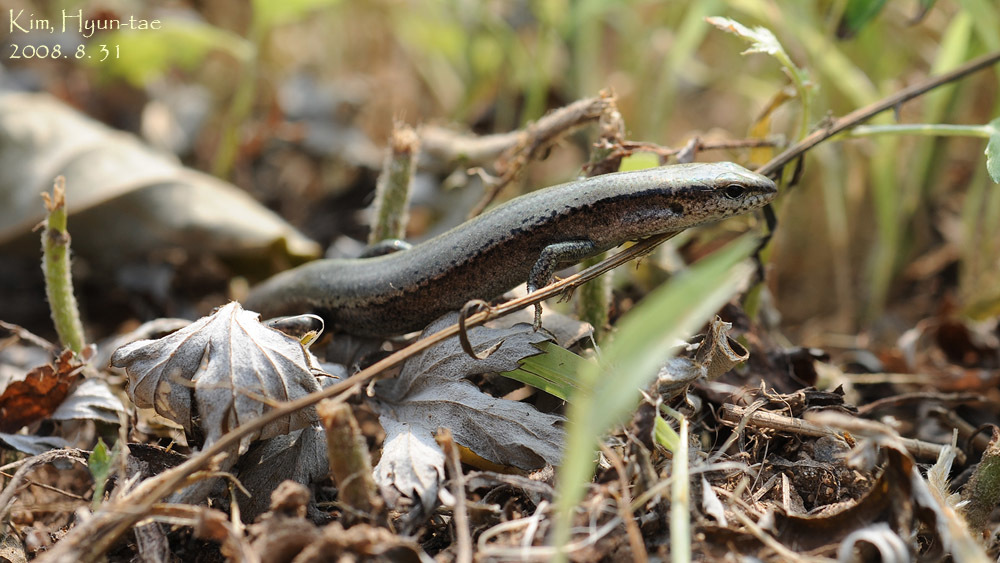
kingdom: Animalia
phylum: Chordata
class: Squamata
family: Scincidae
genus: Scincella
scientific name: Scincella vandenburghi
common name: Tsushima smooth skink
